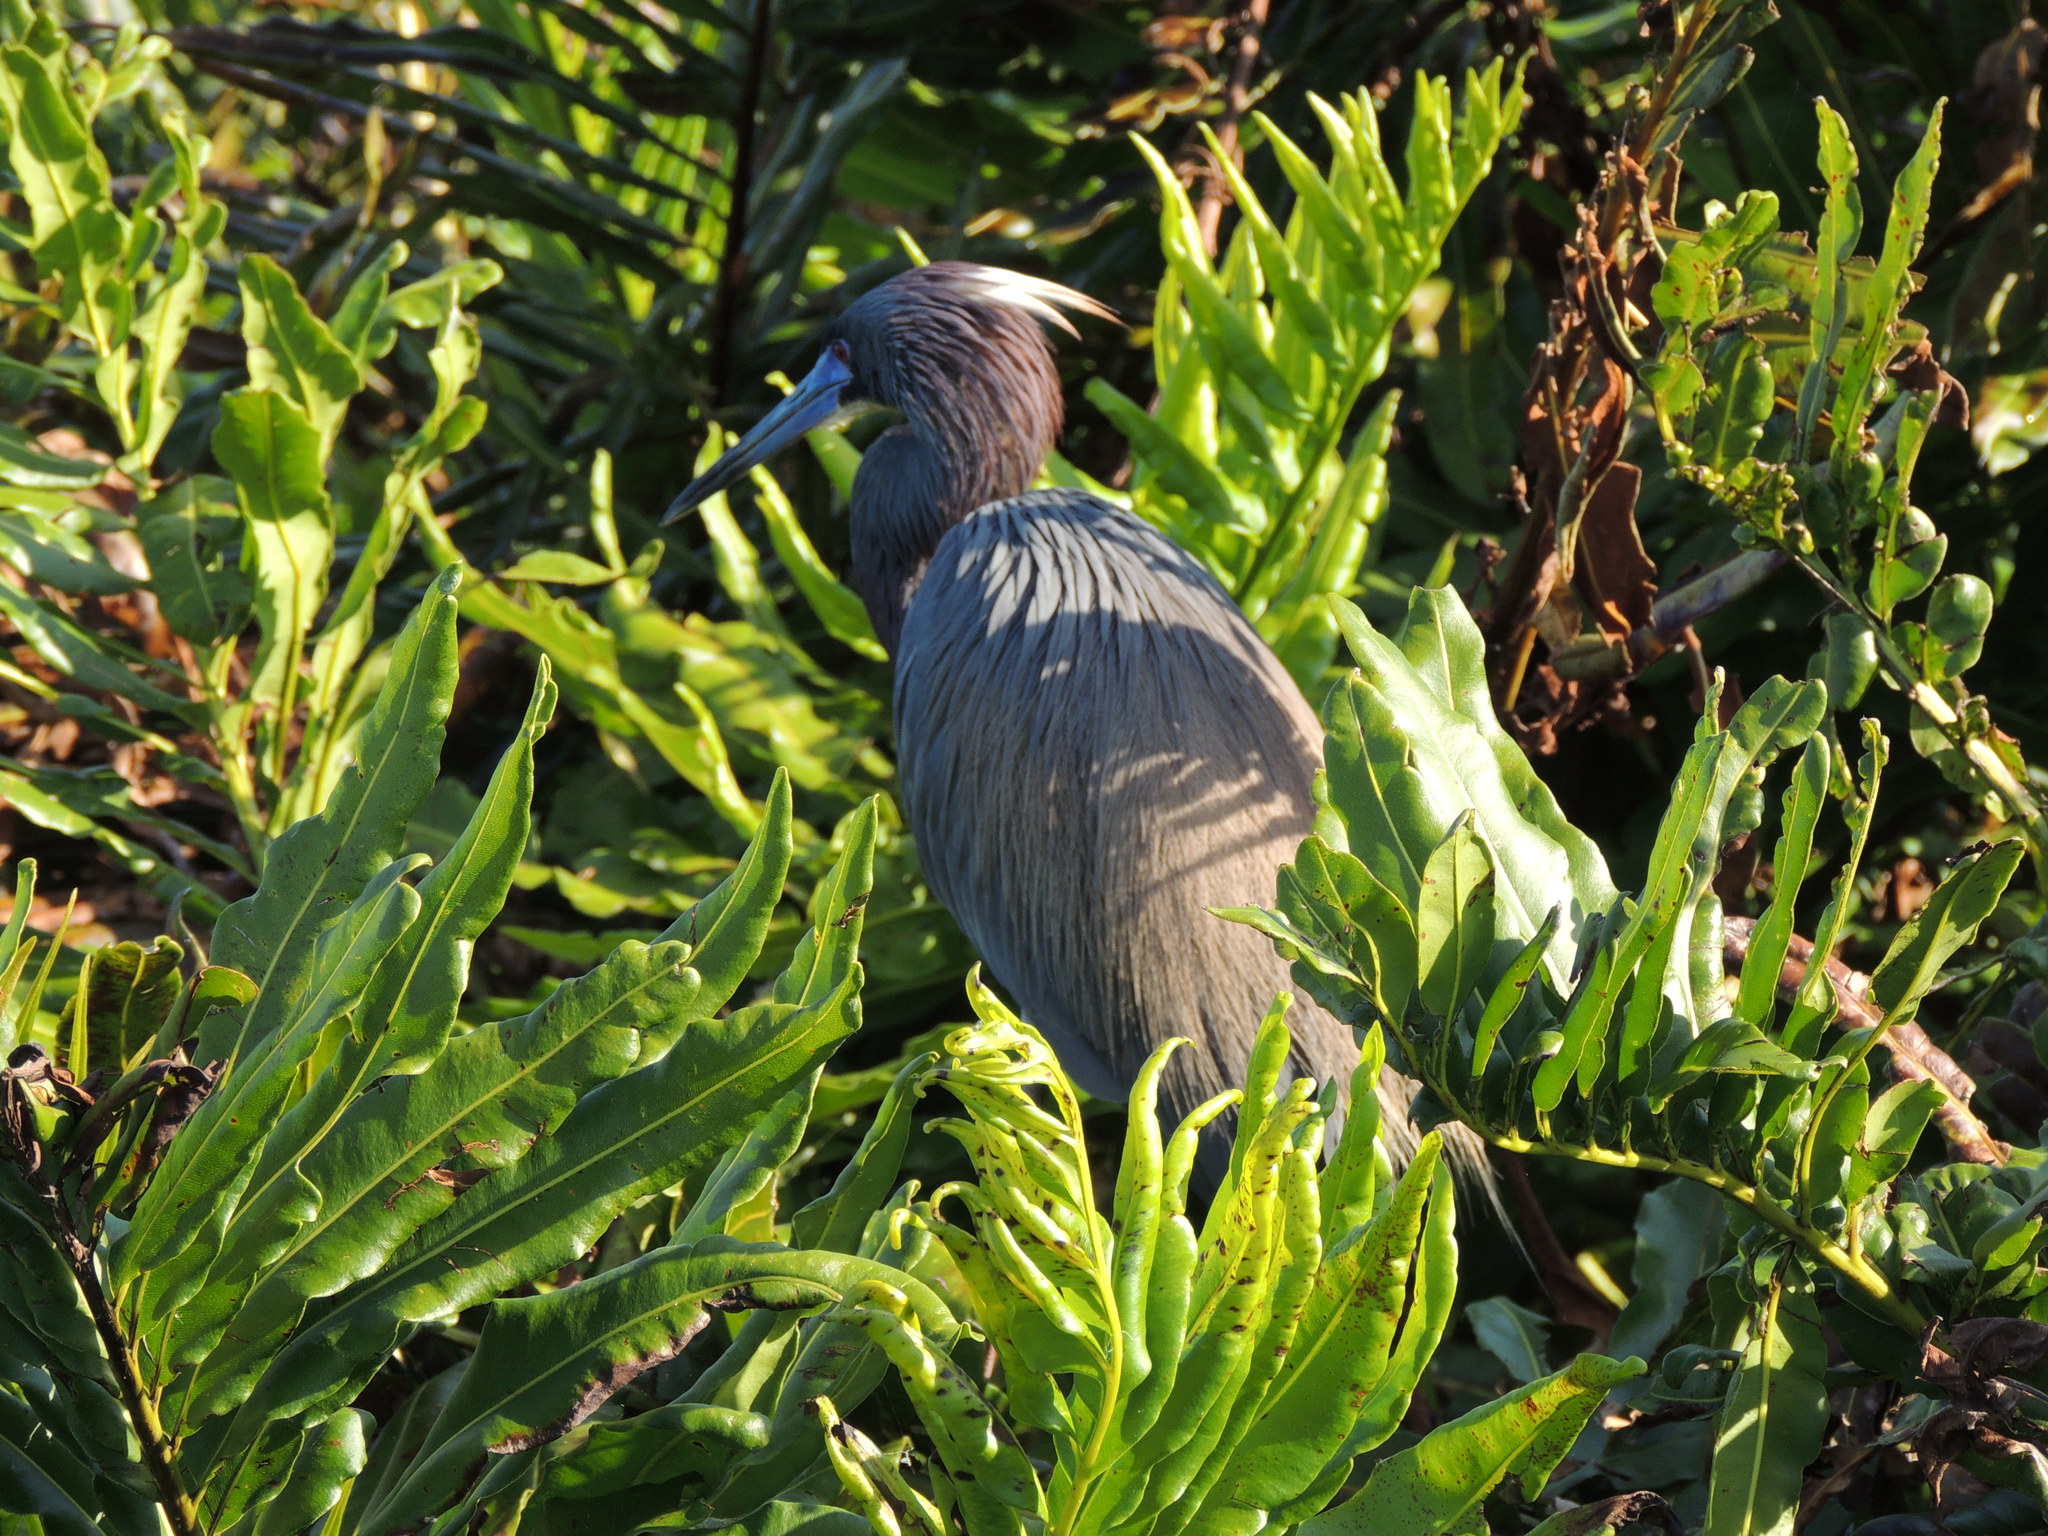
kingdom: Animalia
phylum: Chordata
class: Aves
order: Pelecaniformes
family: Ardeidae
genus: Egretta
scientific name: Egretta tricolor
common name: Tricolored heron
